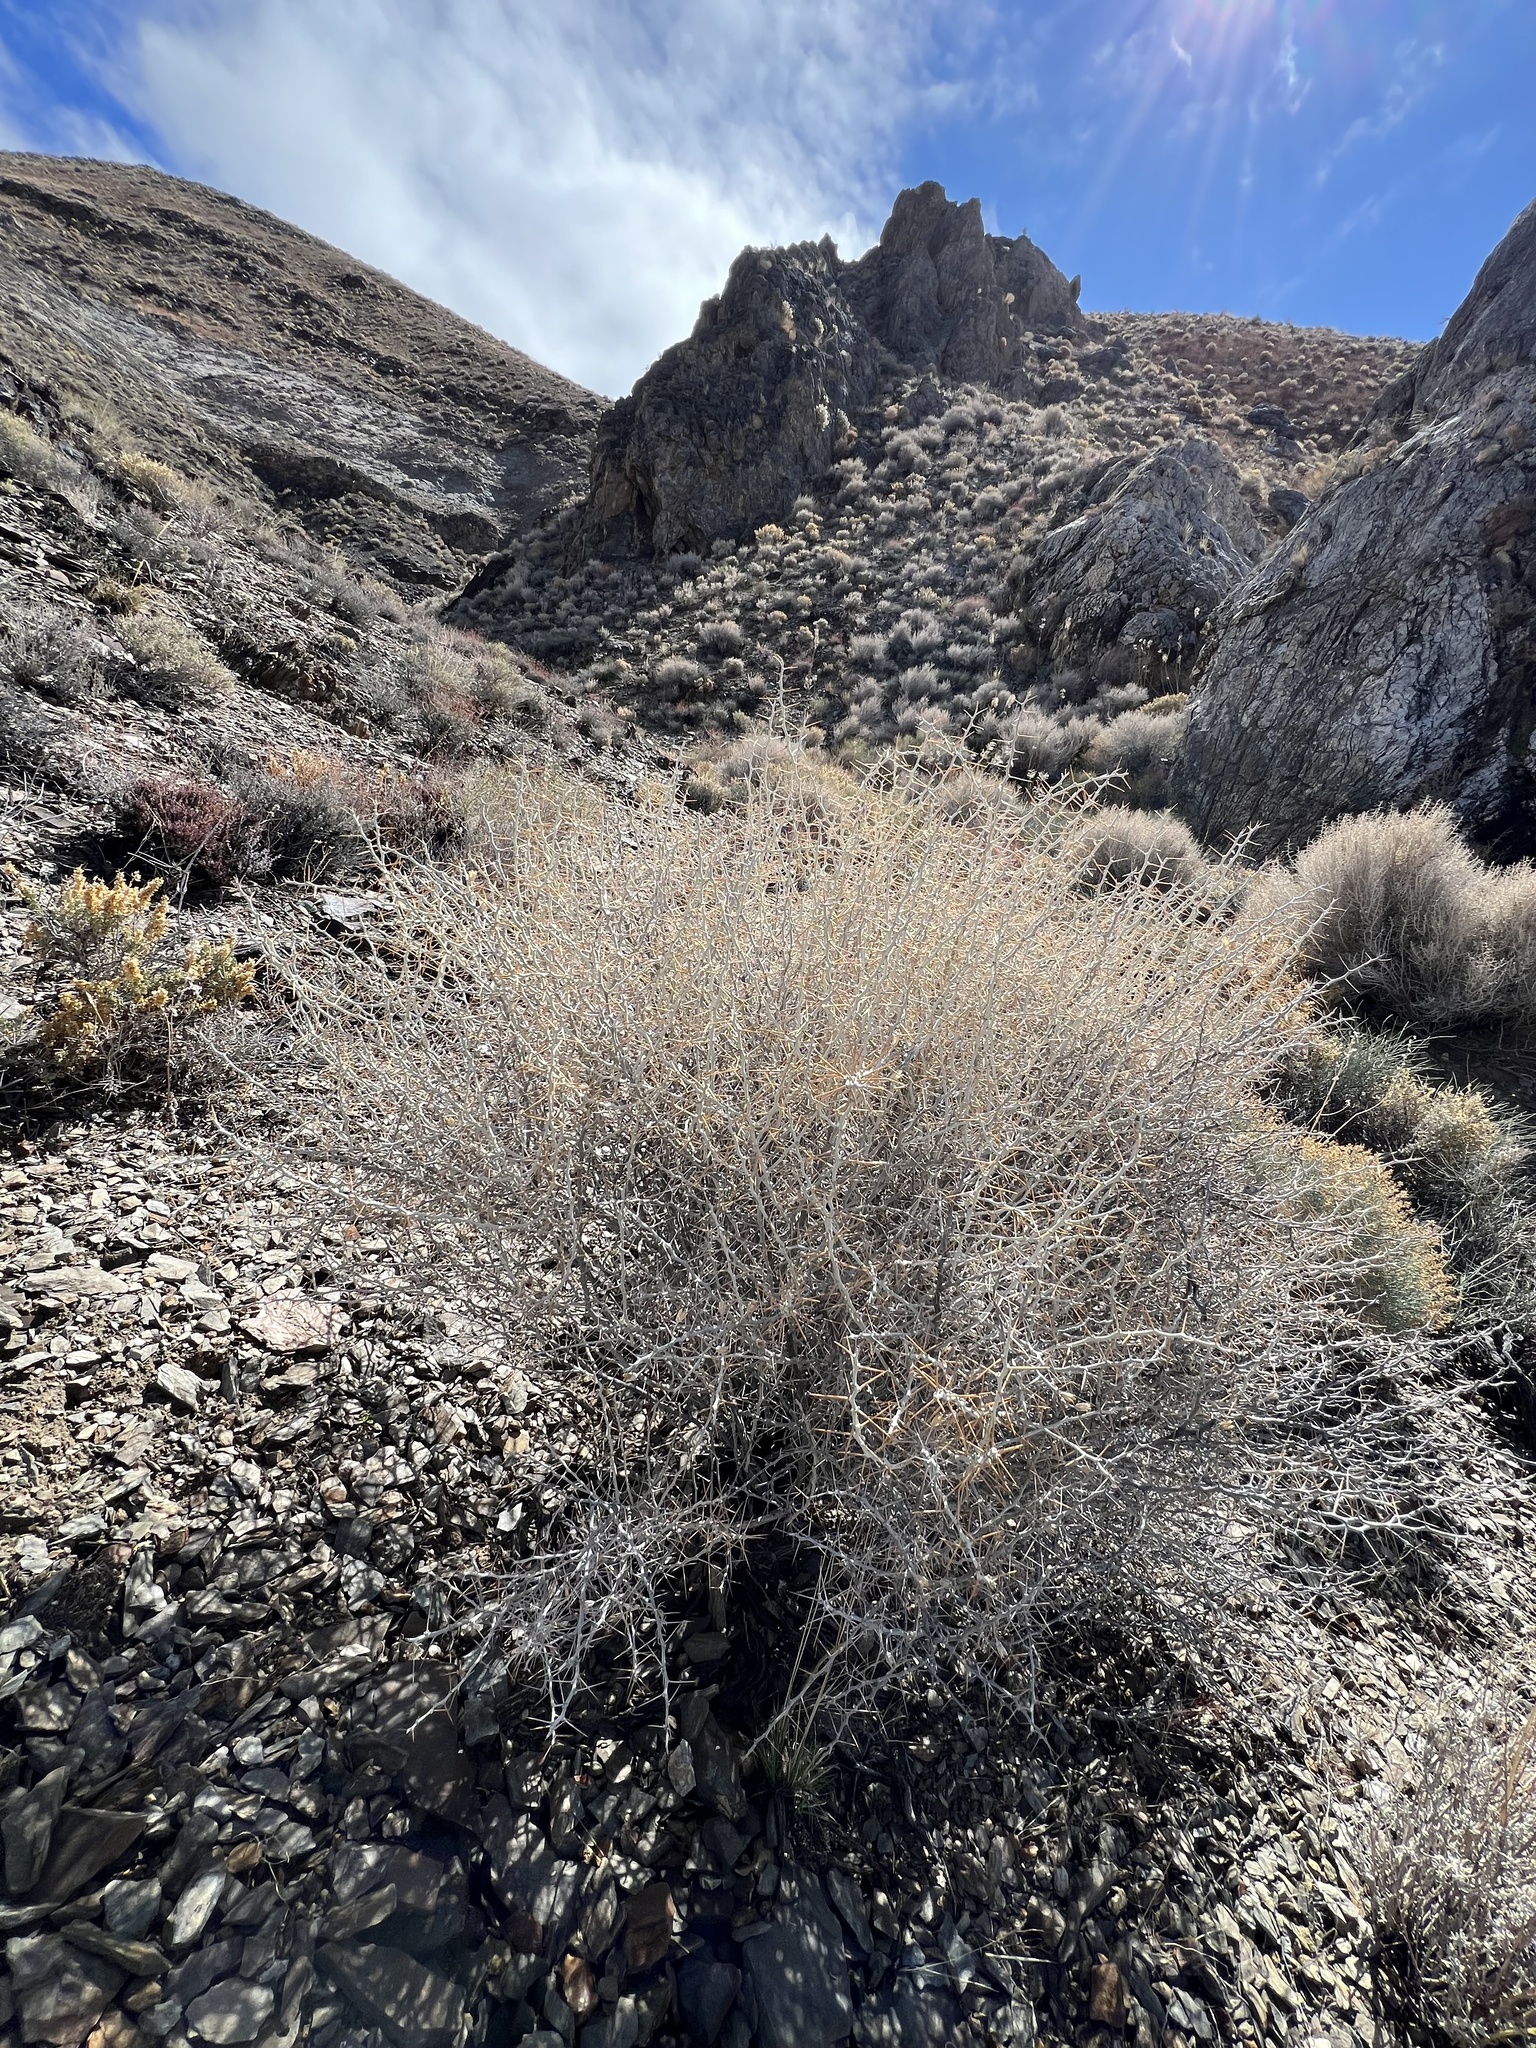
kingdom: Plantae
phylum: Tracheophyta
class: Magnoliopsida
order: Asterales
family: Asteraceae
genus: Tetradymia
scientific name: Tetradymia axillaris
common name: Long-spine horsebrush
